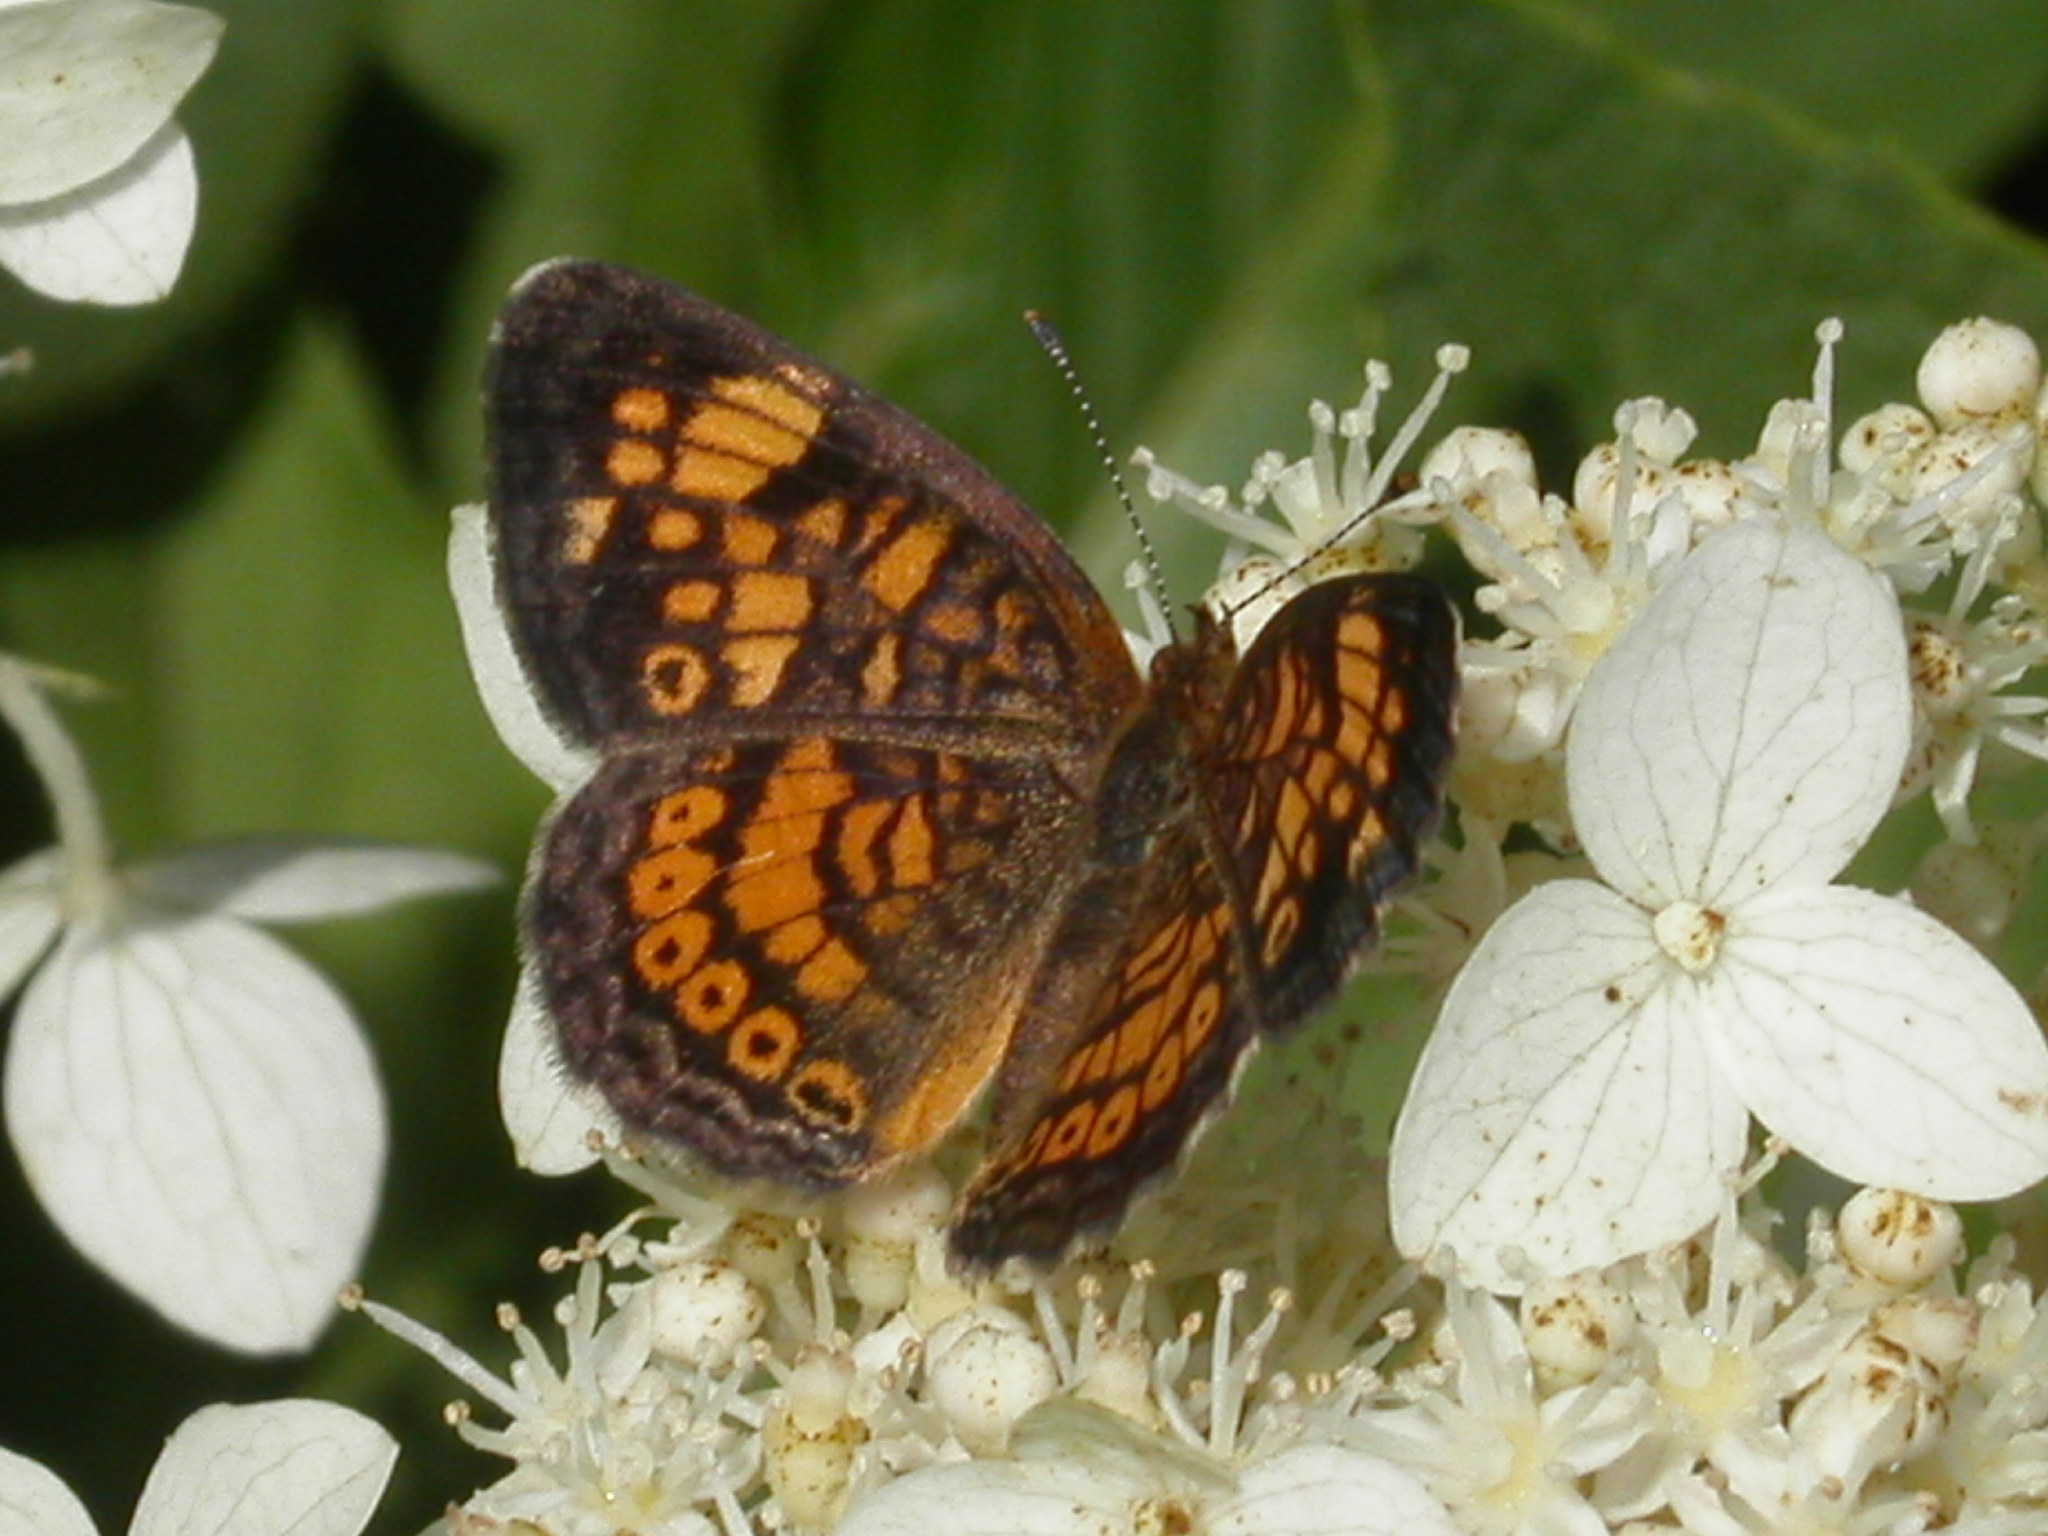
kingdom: Animalia
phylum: Arthropoda
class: Insecta
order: Lepidoptera
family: Nymphalidae
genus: Phyciodes
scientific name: Phyciodes tharos
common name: Pearl crescent
